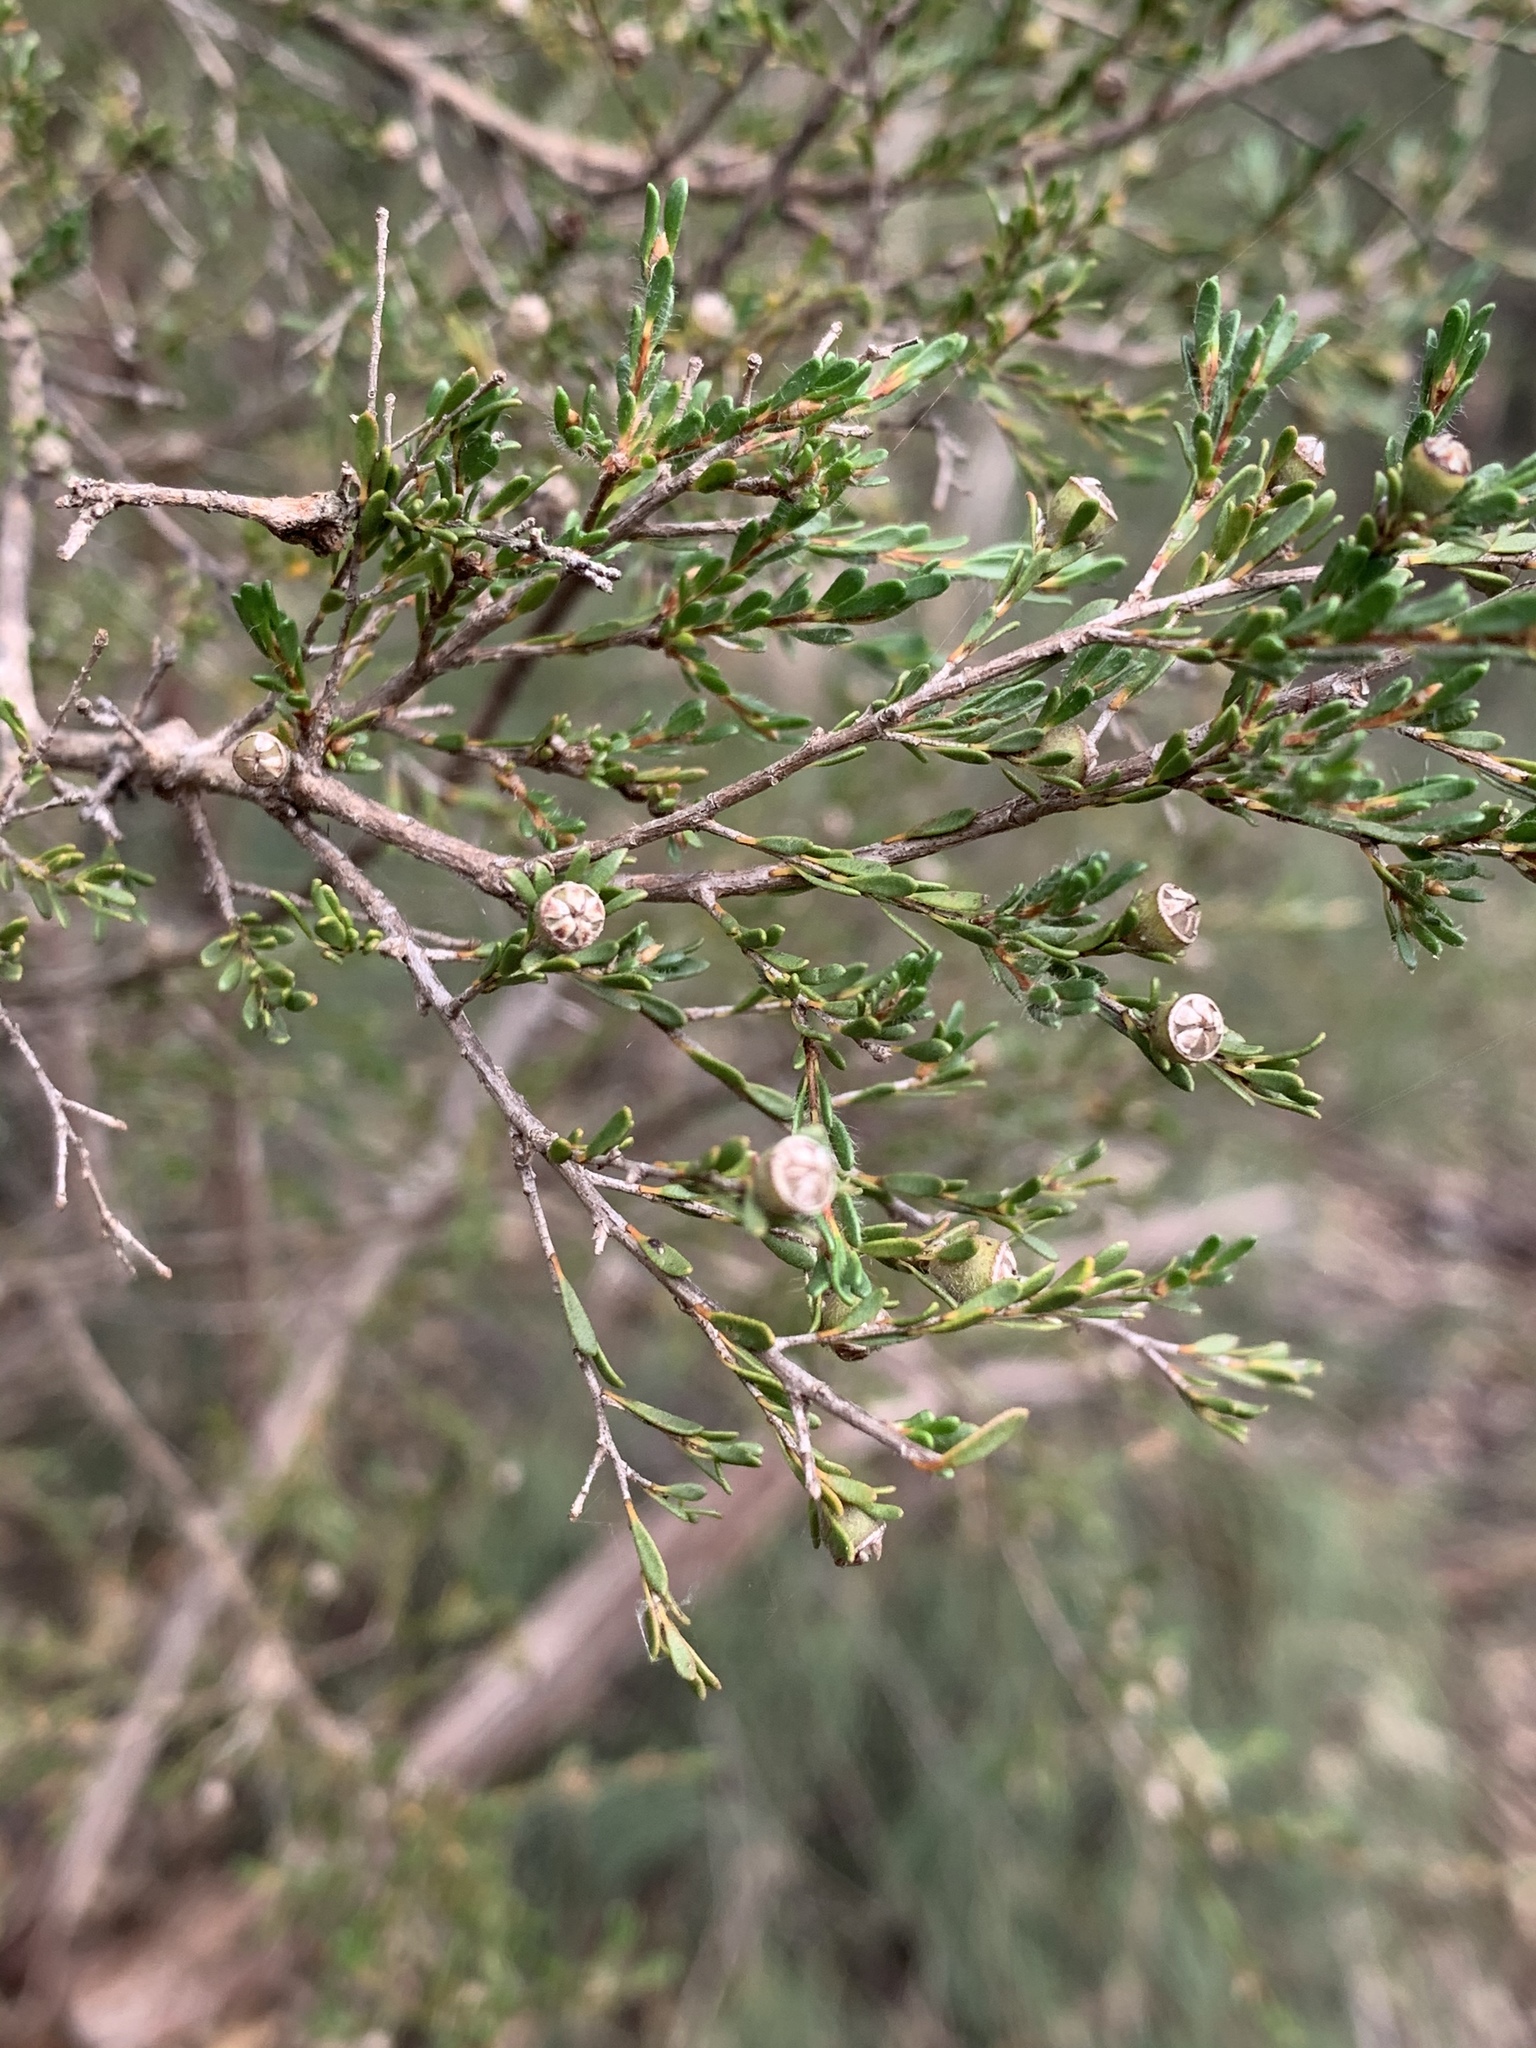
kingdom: Plantae
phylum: Tracheophyta
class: Magnoliopsida
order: Myrtales
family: Myrtaceae
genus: Leptospermum
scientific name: Leptospermum parvifolium
